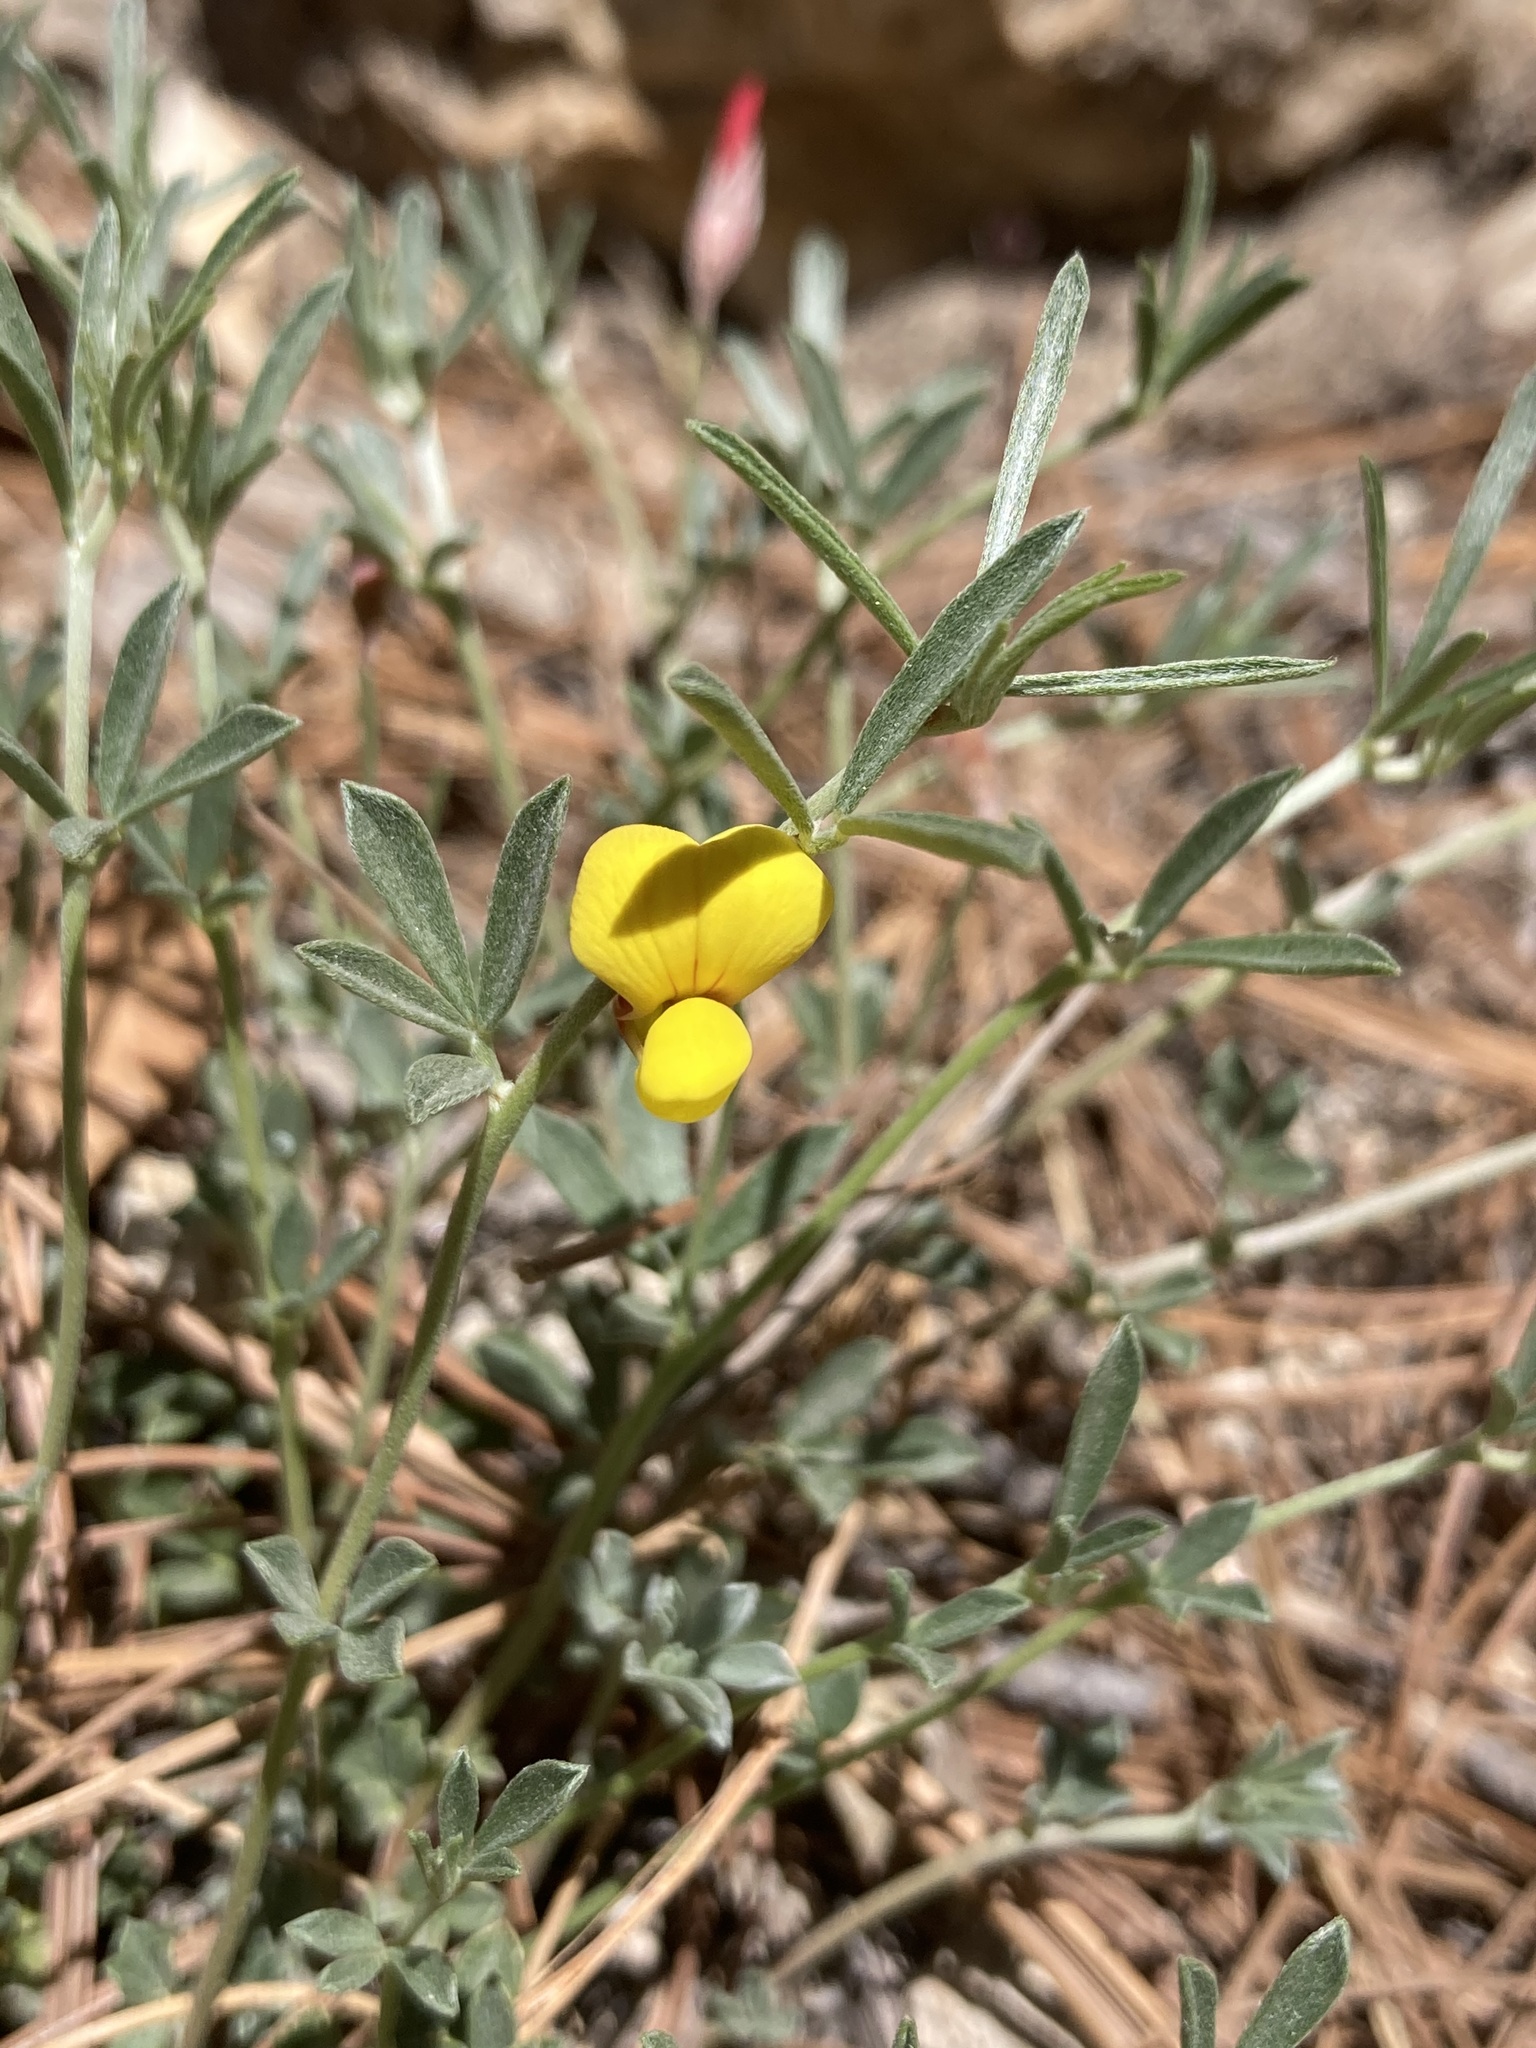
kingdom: Plantae
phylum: Tracheophyta
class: Magnoliopsida
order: Fabales
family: Fabaceae
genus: Acmispon
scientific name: Acmispon oroboides
